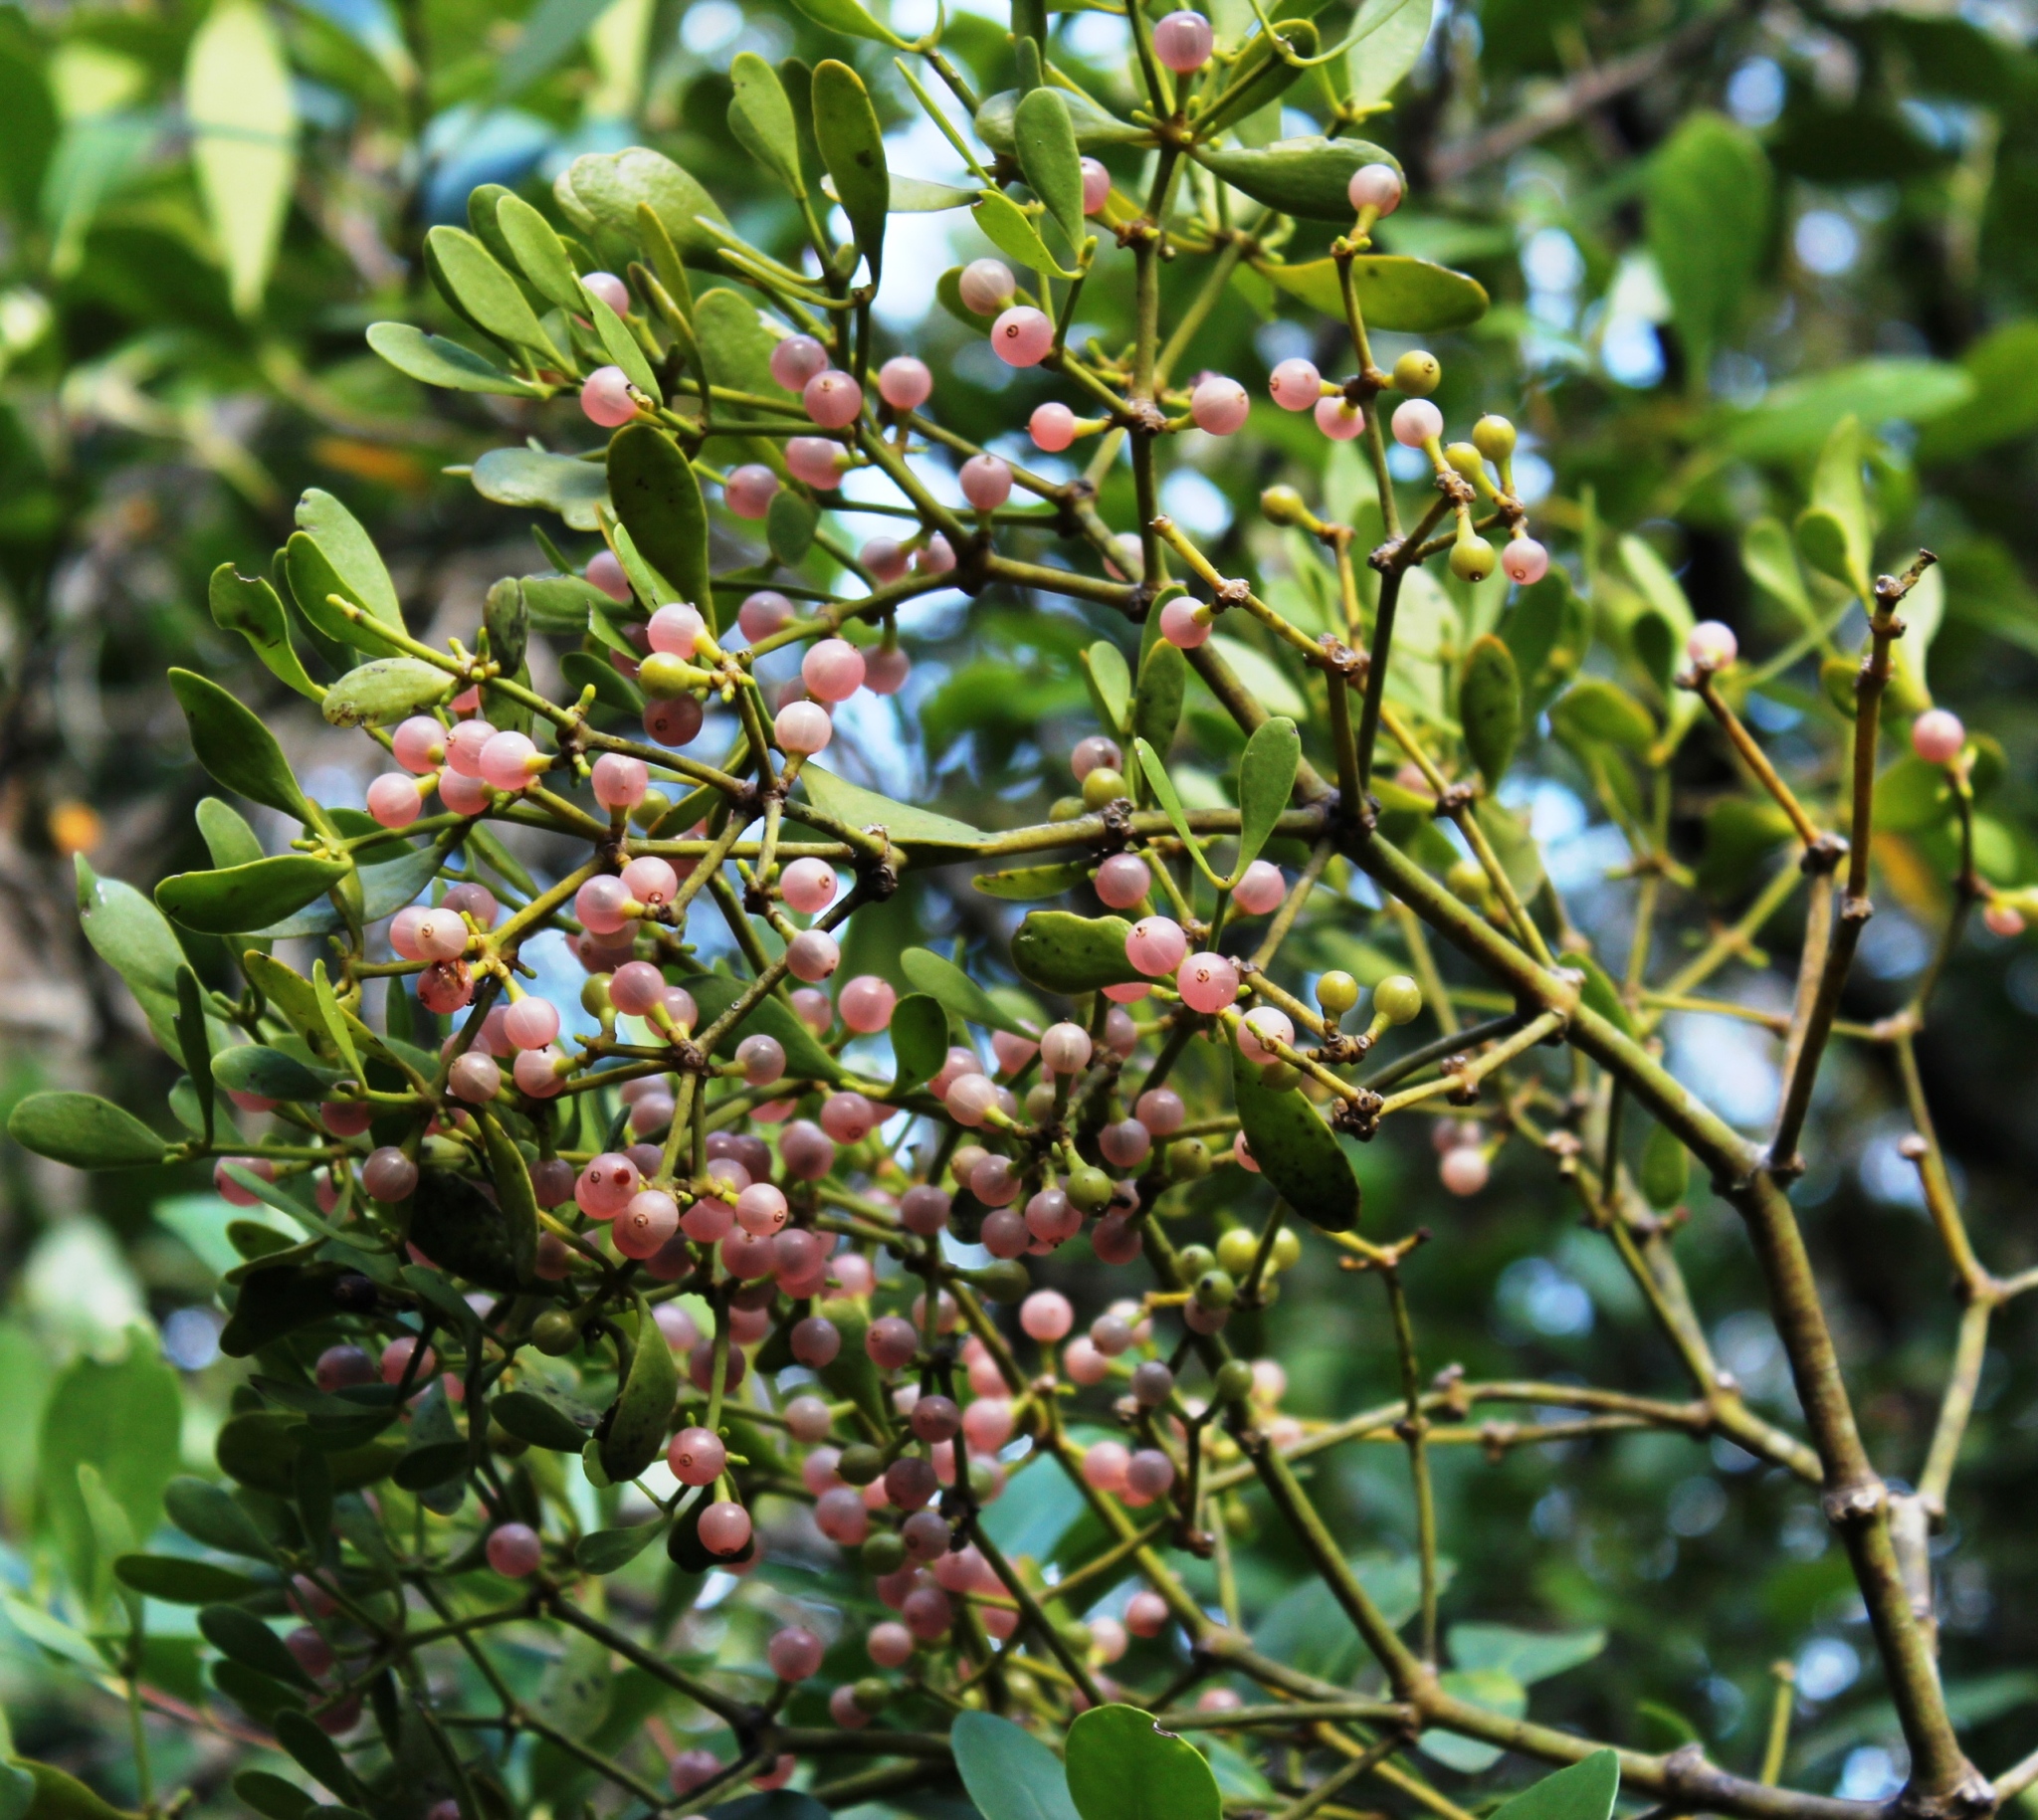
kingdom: Plantae
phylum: Tracheophyta
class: Magnoliopsida
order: Santalales
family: Viscaceae
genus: Viscum
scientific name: Viscum obscurum
